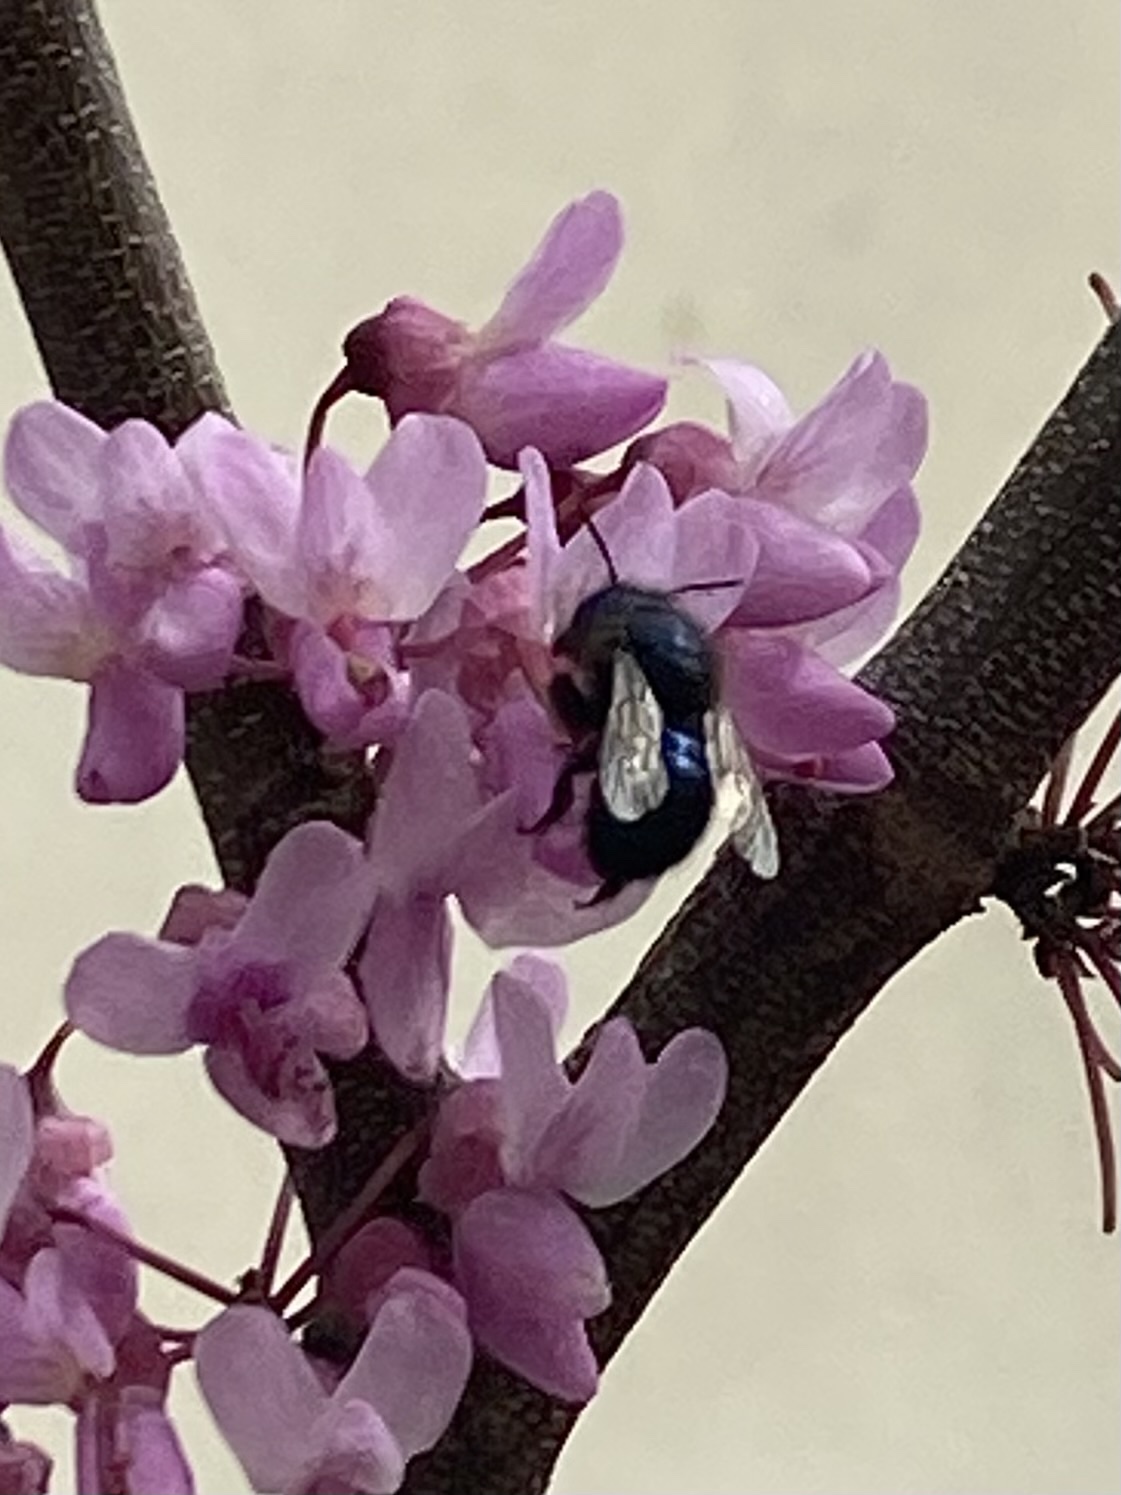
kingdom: Animalia
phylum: Arthropoda
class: Insecta
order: Hymenoptera
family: Megachilidae
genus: Osmia
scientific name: Osmia ribifloris
